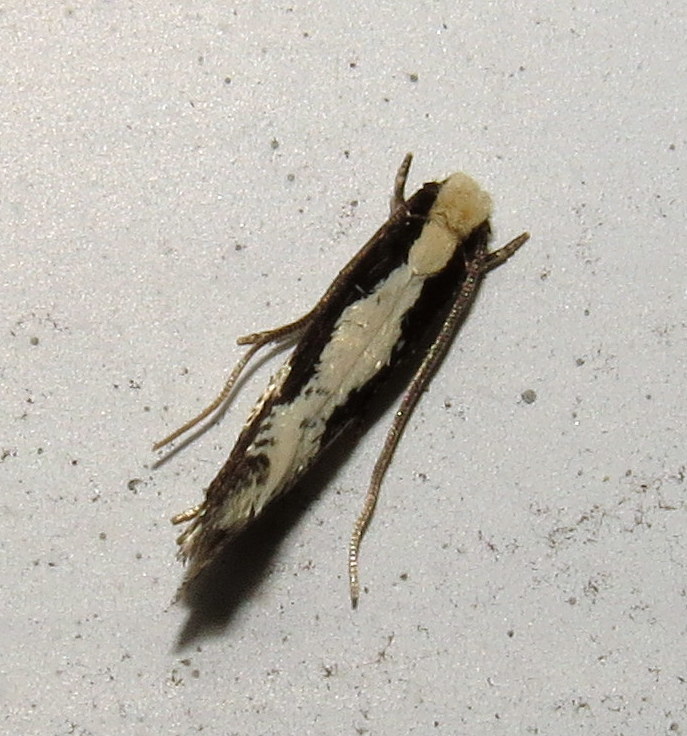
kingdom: Animalia
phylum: Arthropoda
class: Insecta
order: Lepidoptera
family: Tineidae
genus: Monopis
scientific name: Monopis dorsistrigella
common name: Skunkback monopis moth
